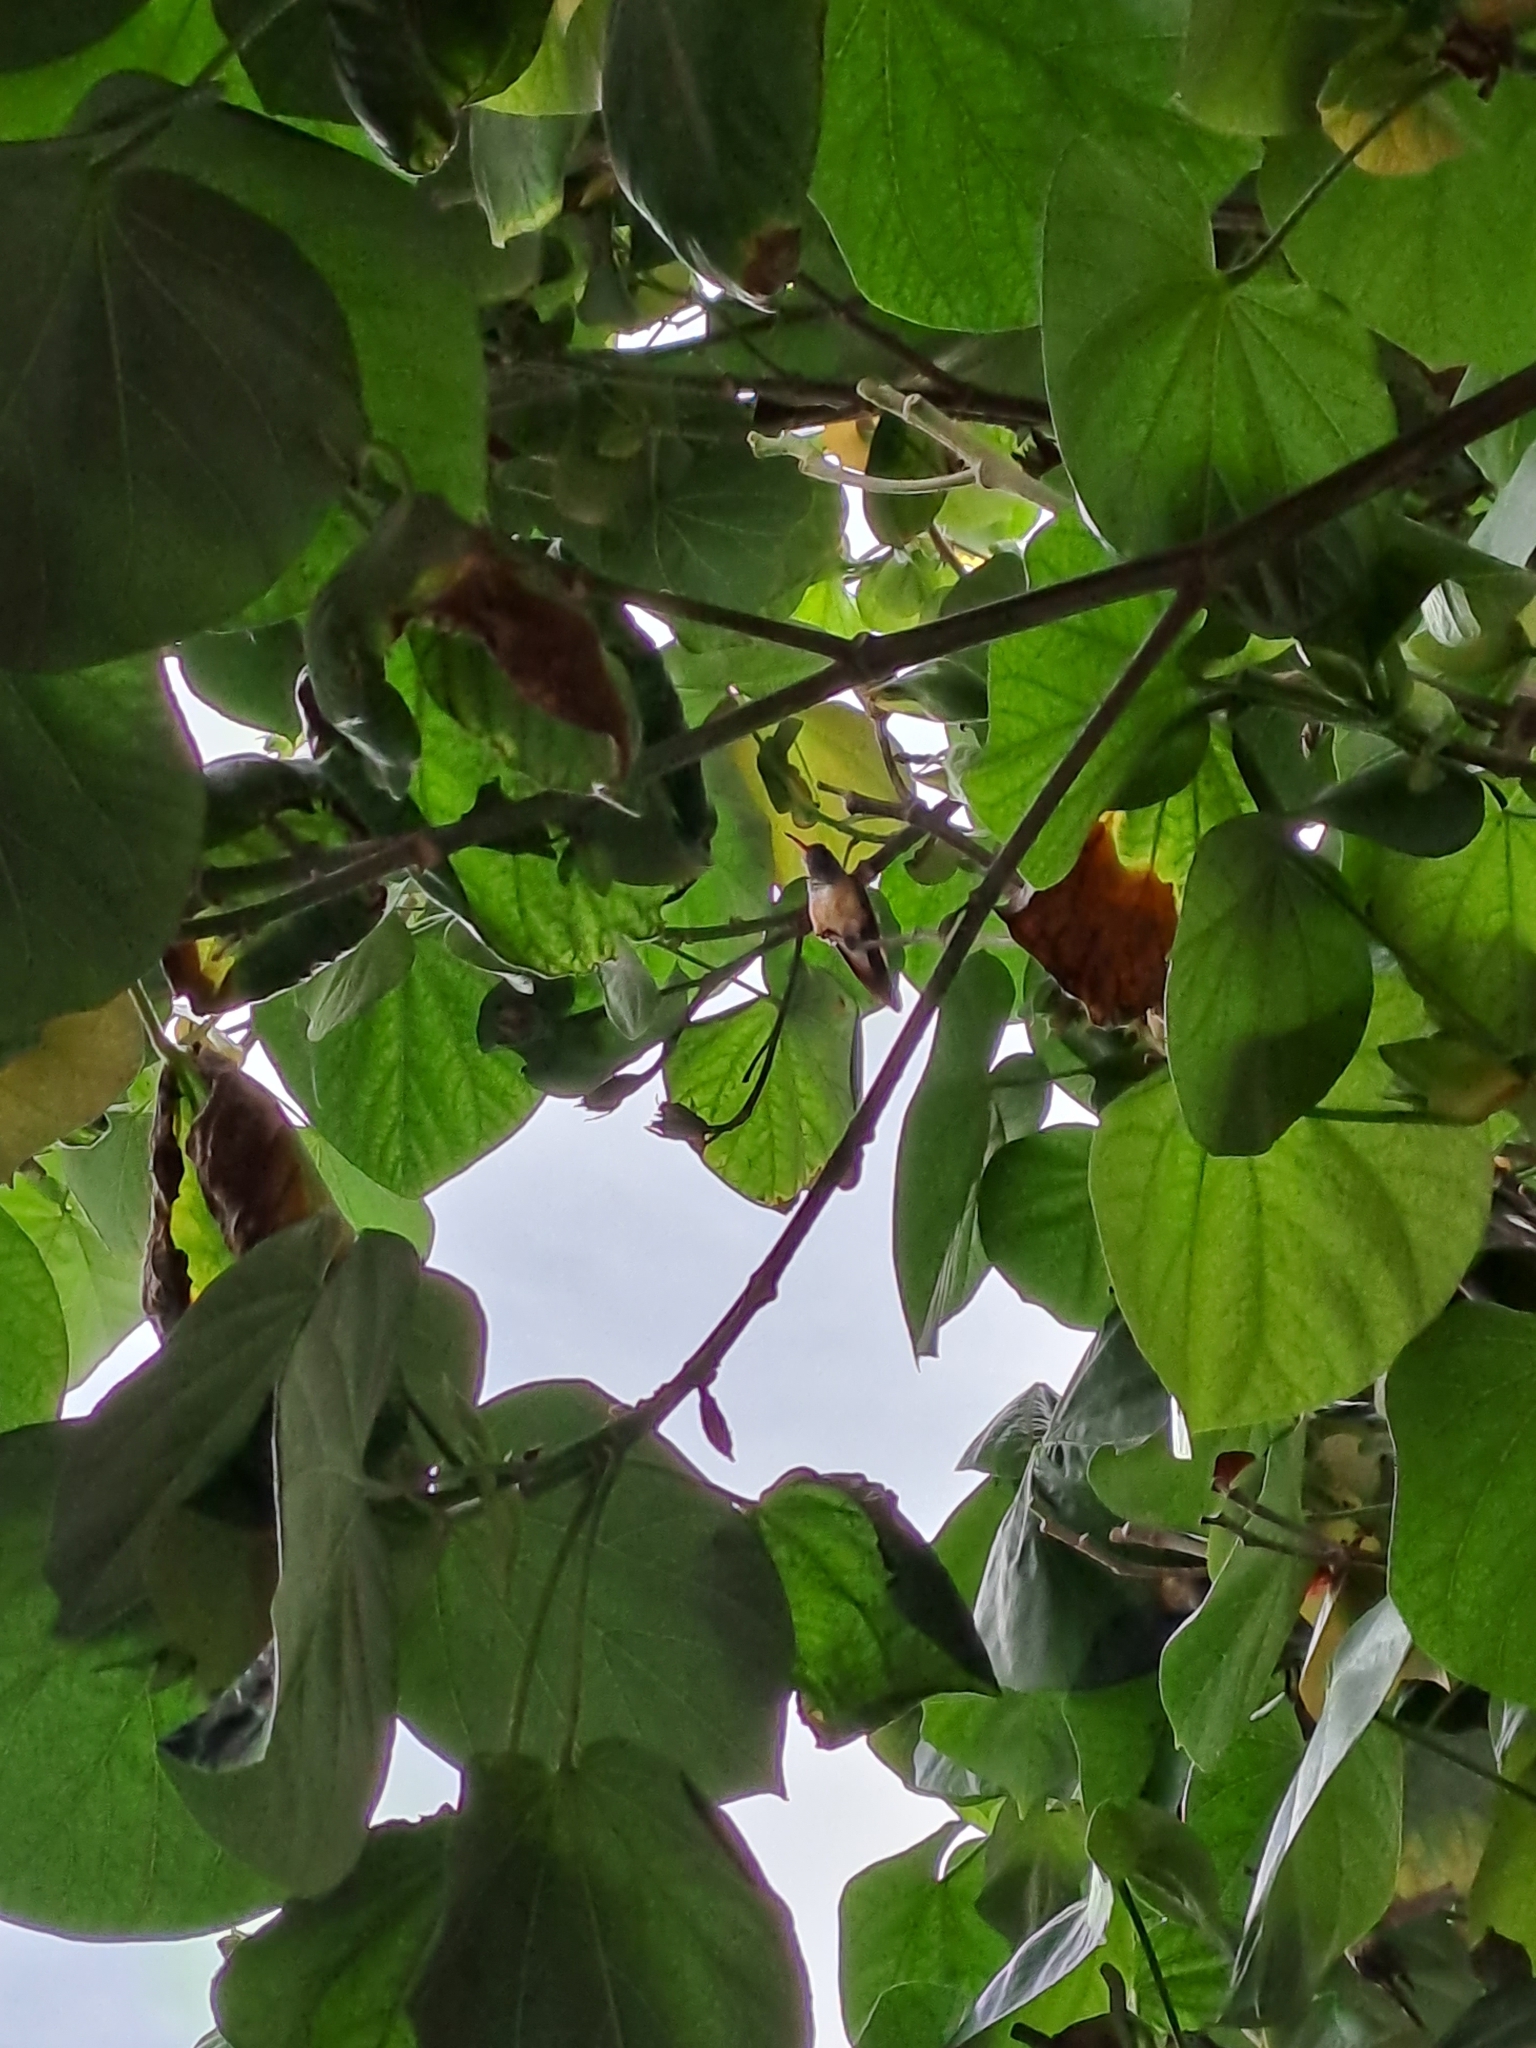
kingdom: Animalia
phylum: Chordata
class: Aves
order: Apodiformes
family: Trochilidae
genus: Amazilis
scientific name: Amazilis amazilia
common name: Amazilia hummingbird
